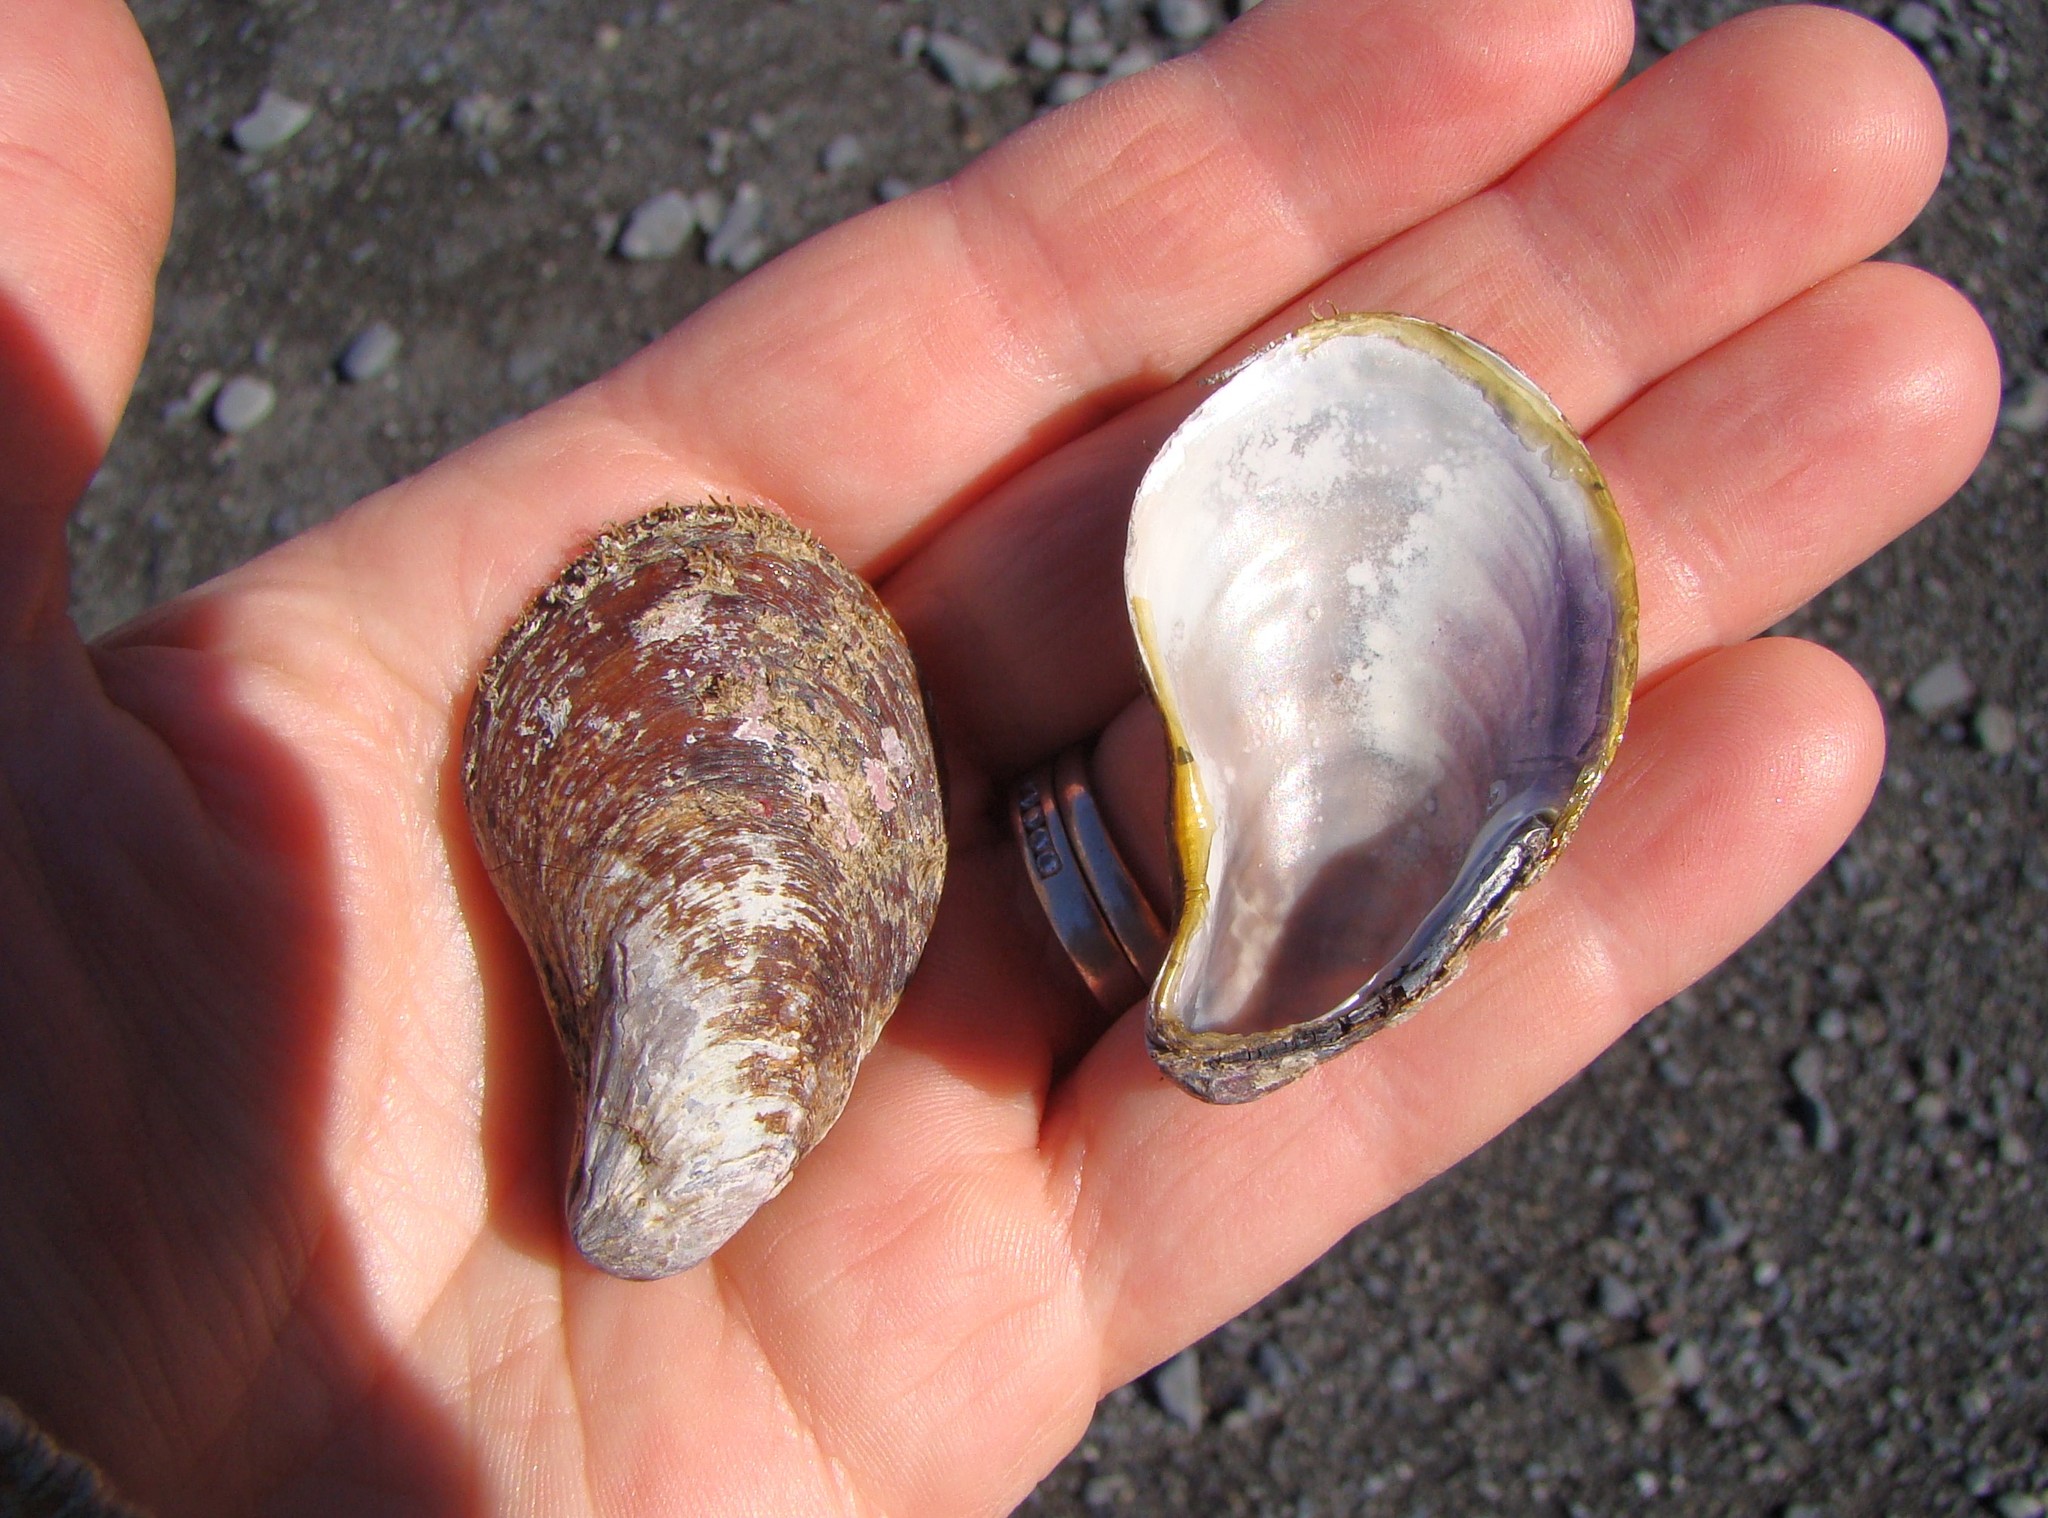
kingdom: Animalia
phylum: Mollusca
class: Bivalvia
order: Mytilida
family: Mytilidae
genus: Modiolus
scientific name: Modiolus areolatus
